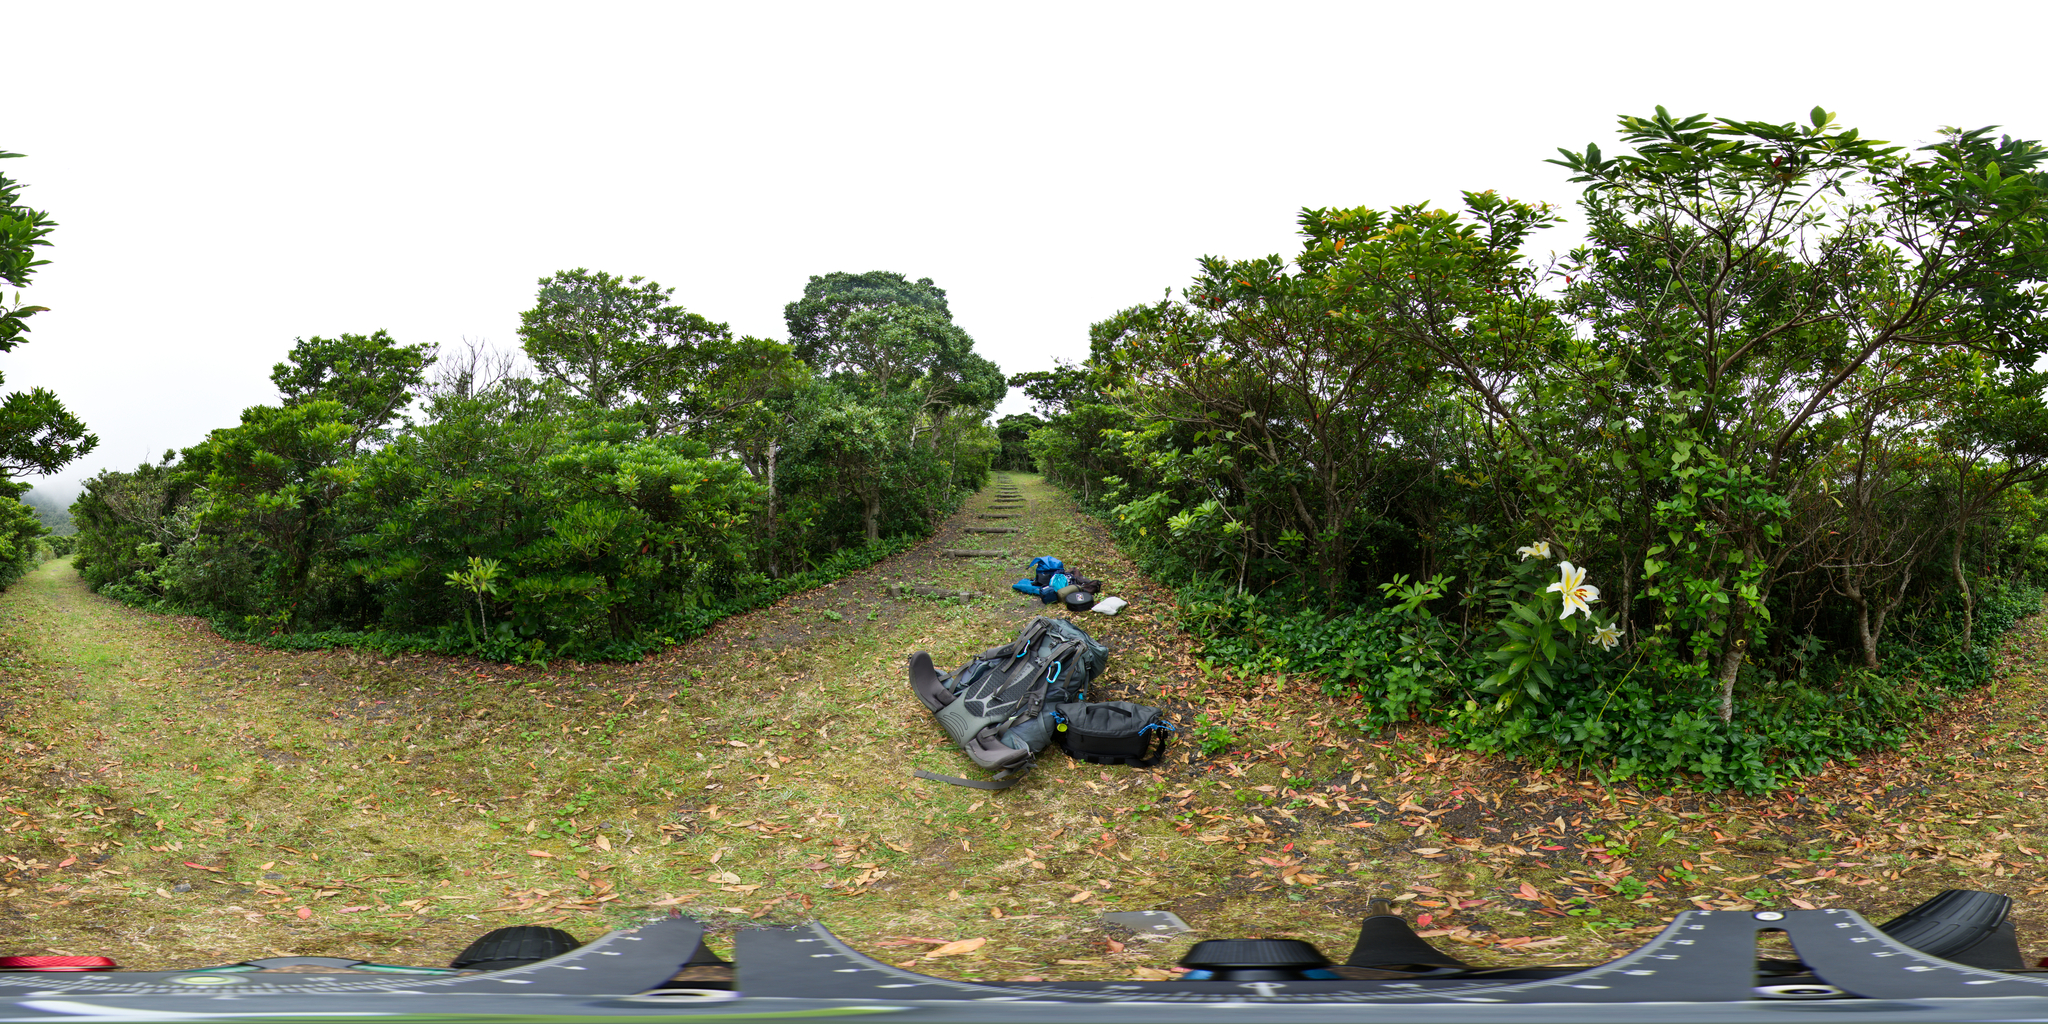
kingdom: Plantae
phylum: Tracheophyta
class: Liliopsida
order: Liliales
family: Liliaceae
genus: Lilium
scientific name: Lilium auratum
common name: Golden-ray lily
